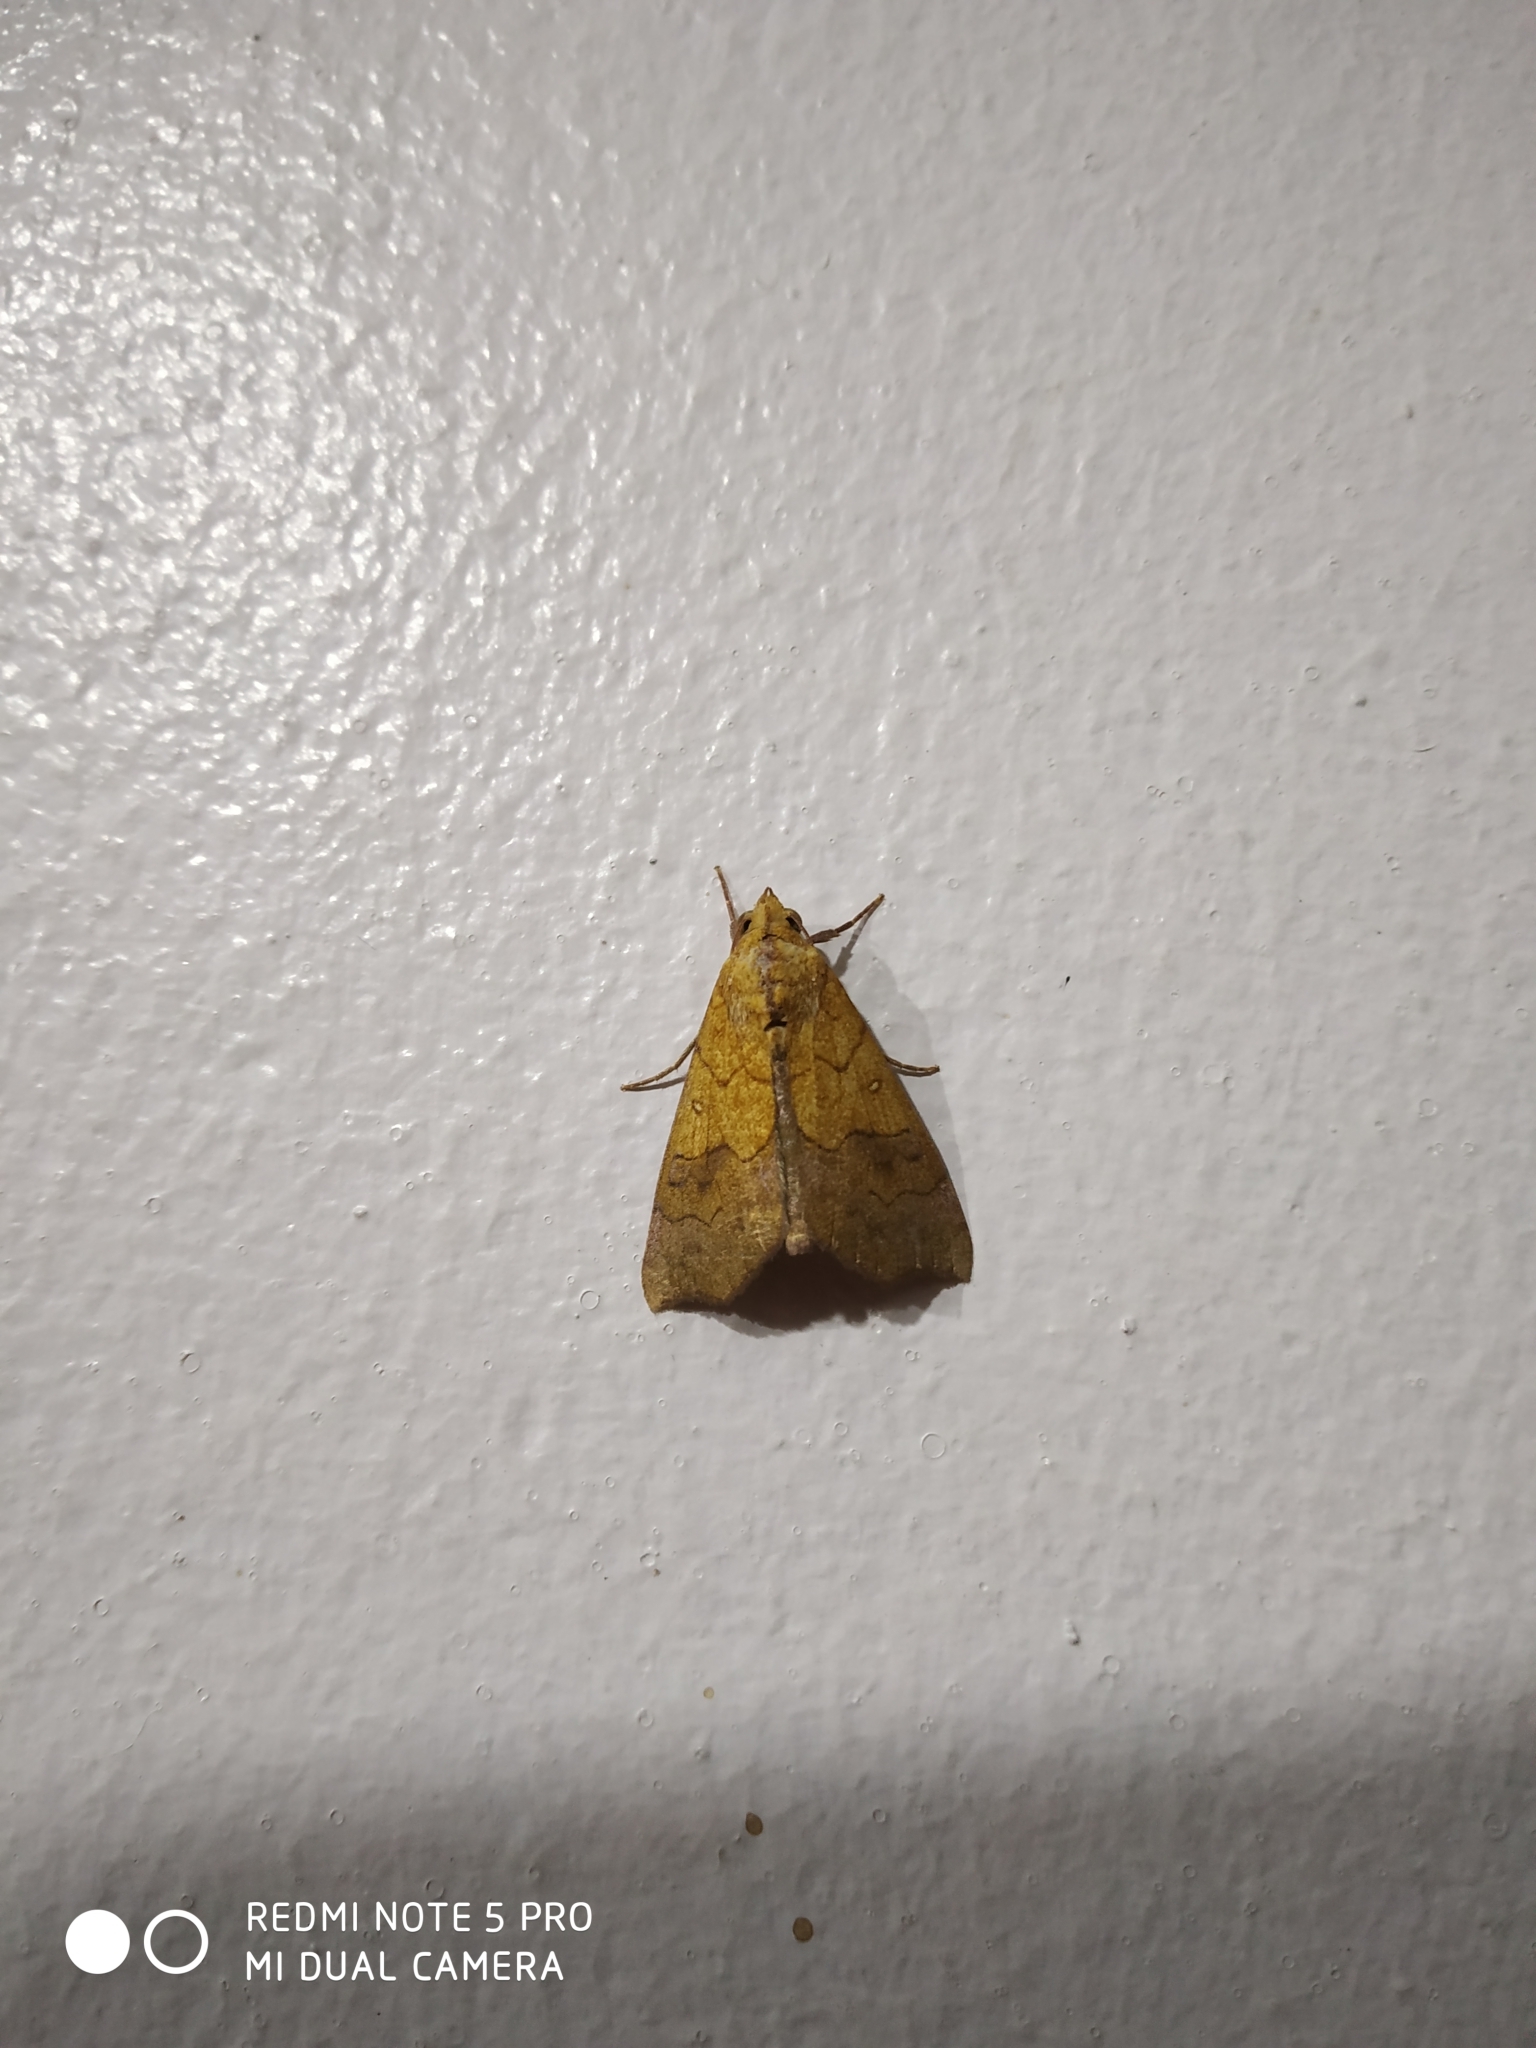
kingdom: Animalia
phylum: Arthropoda
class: Insecta
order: Lepidoptera
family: Erebidae
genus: Anomis
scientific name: Anomis flava
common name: Moth
